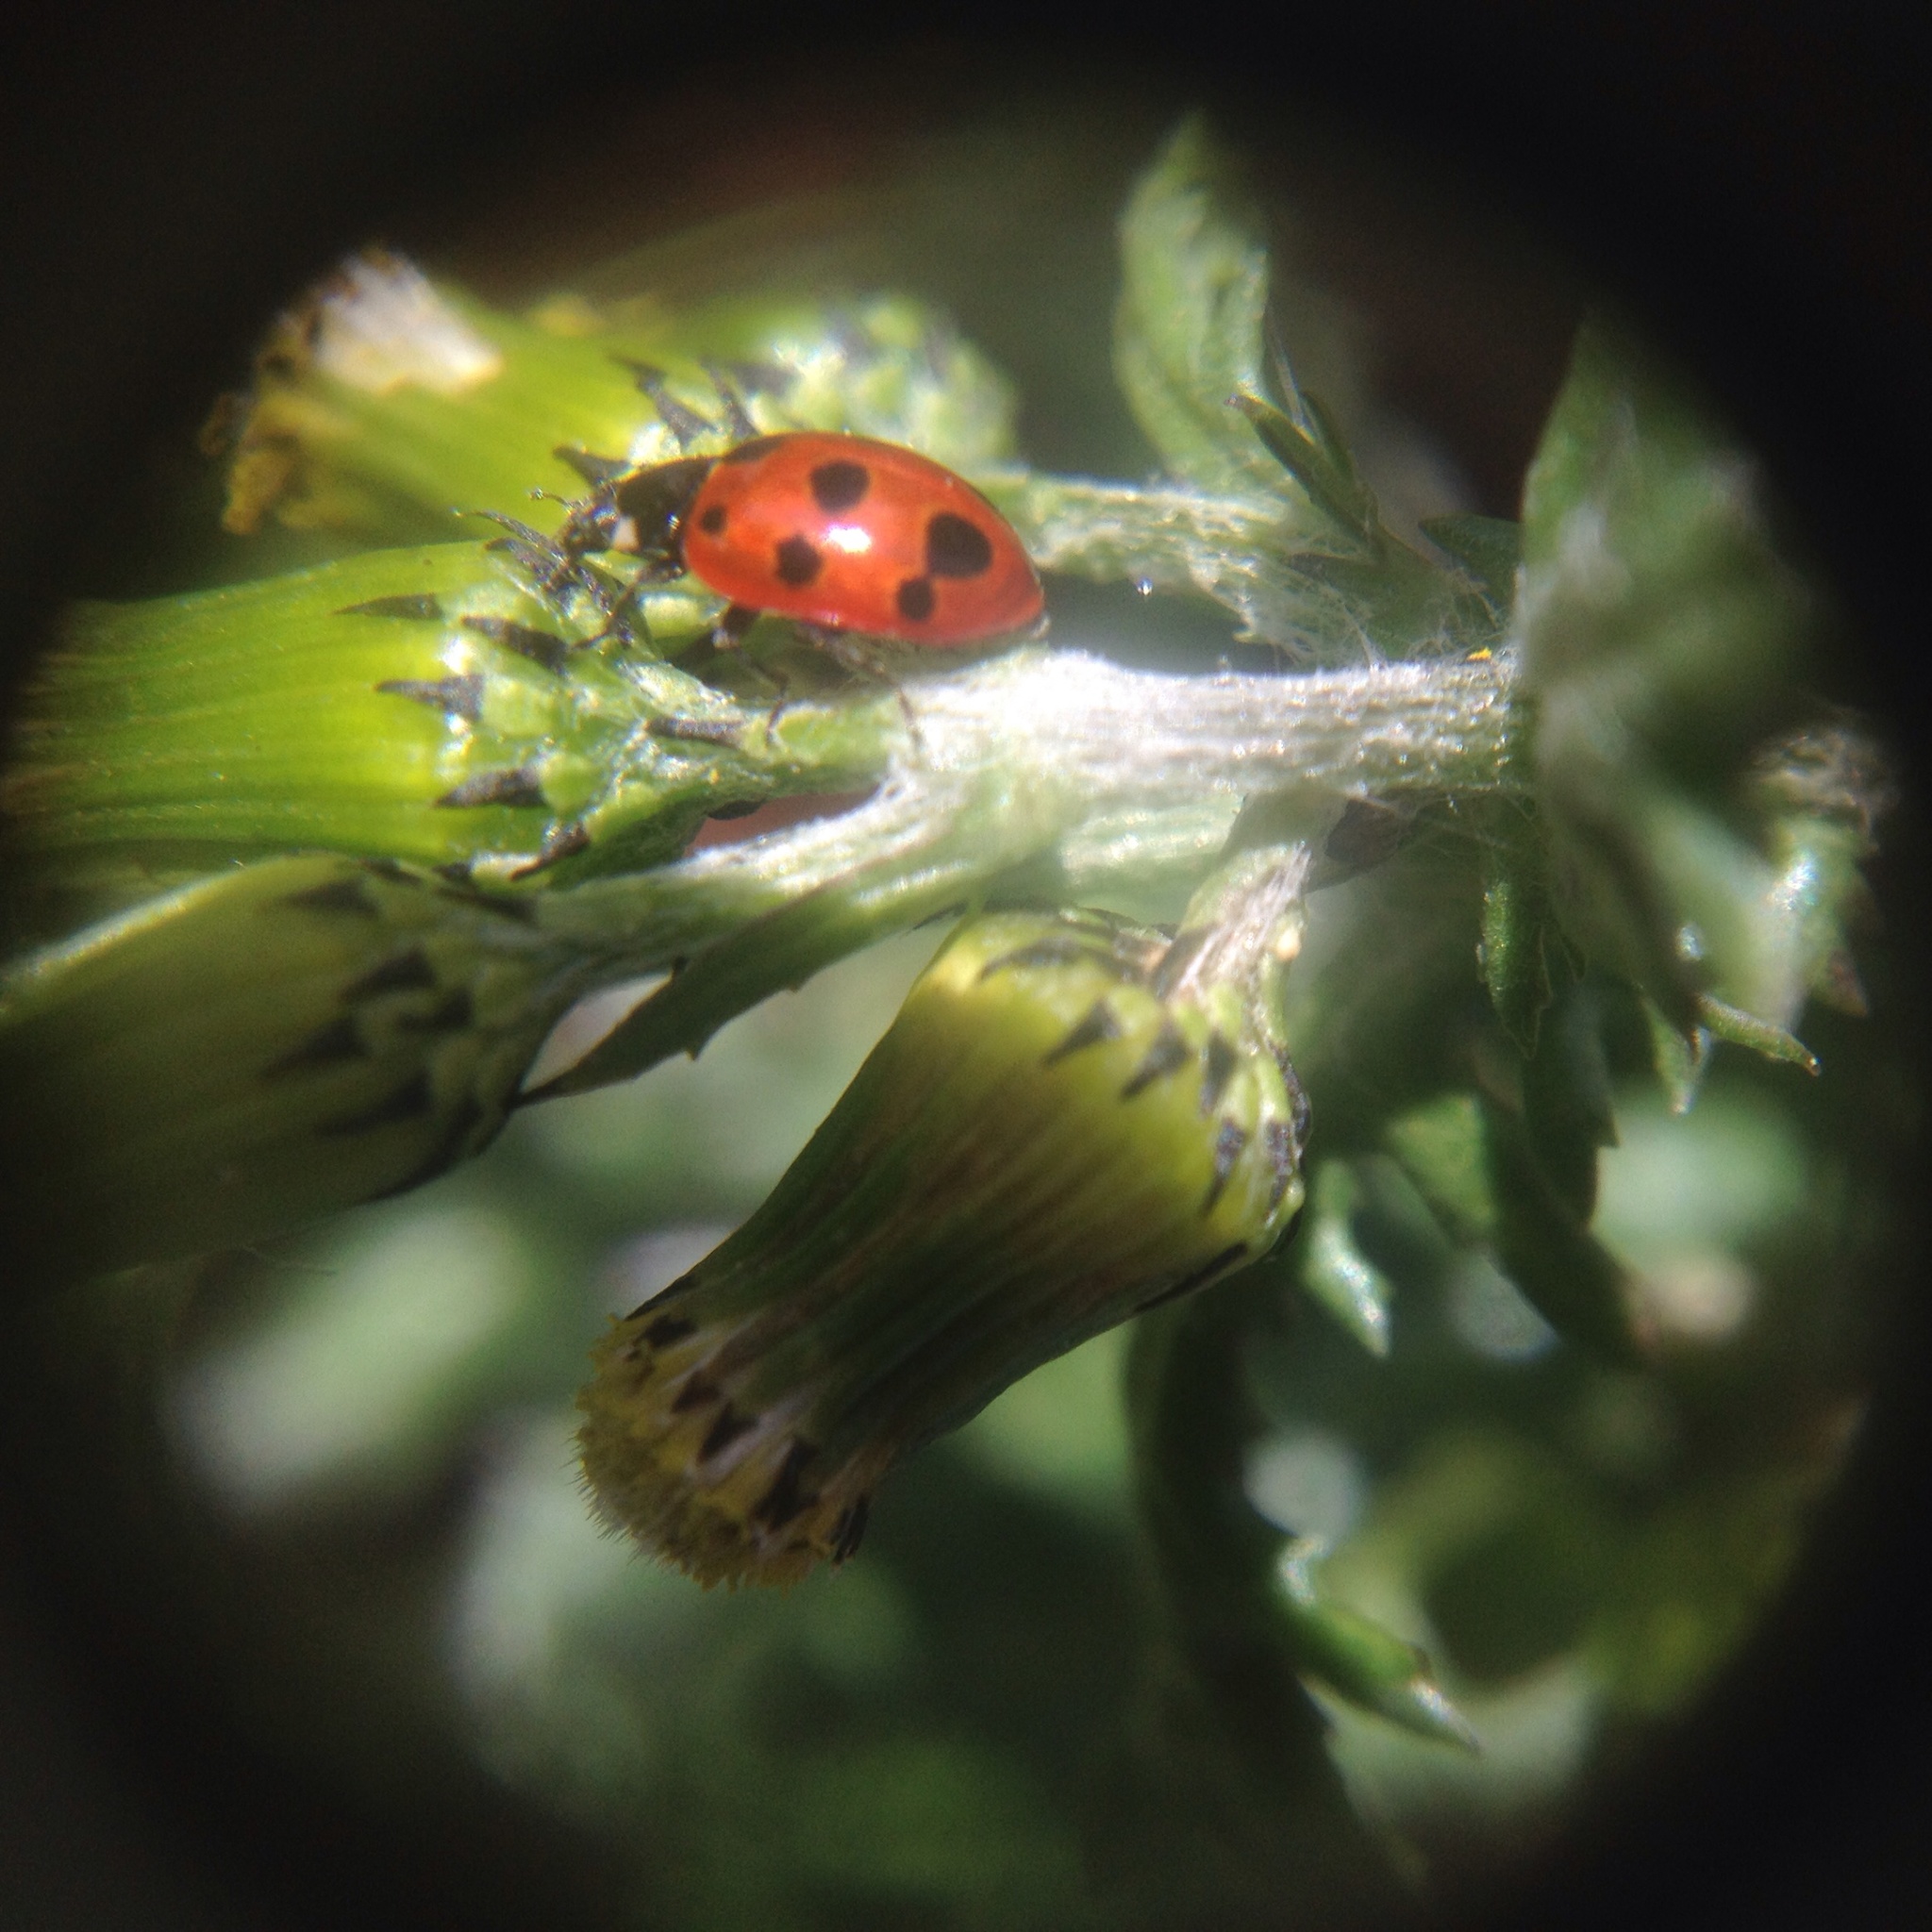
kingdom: Animalia
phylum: Arthropoda
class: Insecta
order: Coleoptera
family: Coccinellidae
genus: Coccinella
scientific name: Coccinella undecimpunctata
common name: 11-spot ladybird
